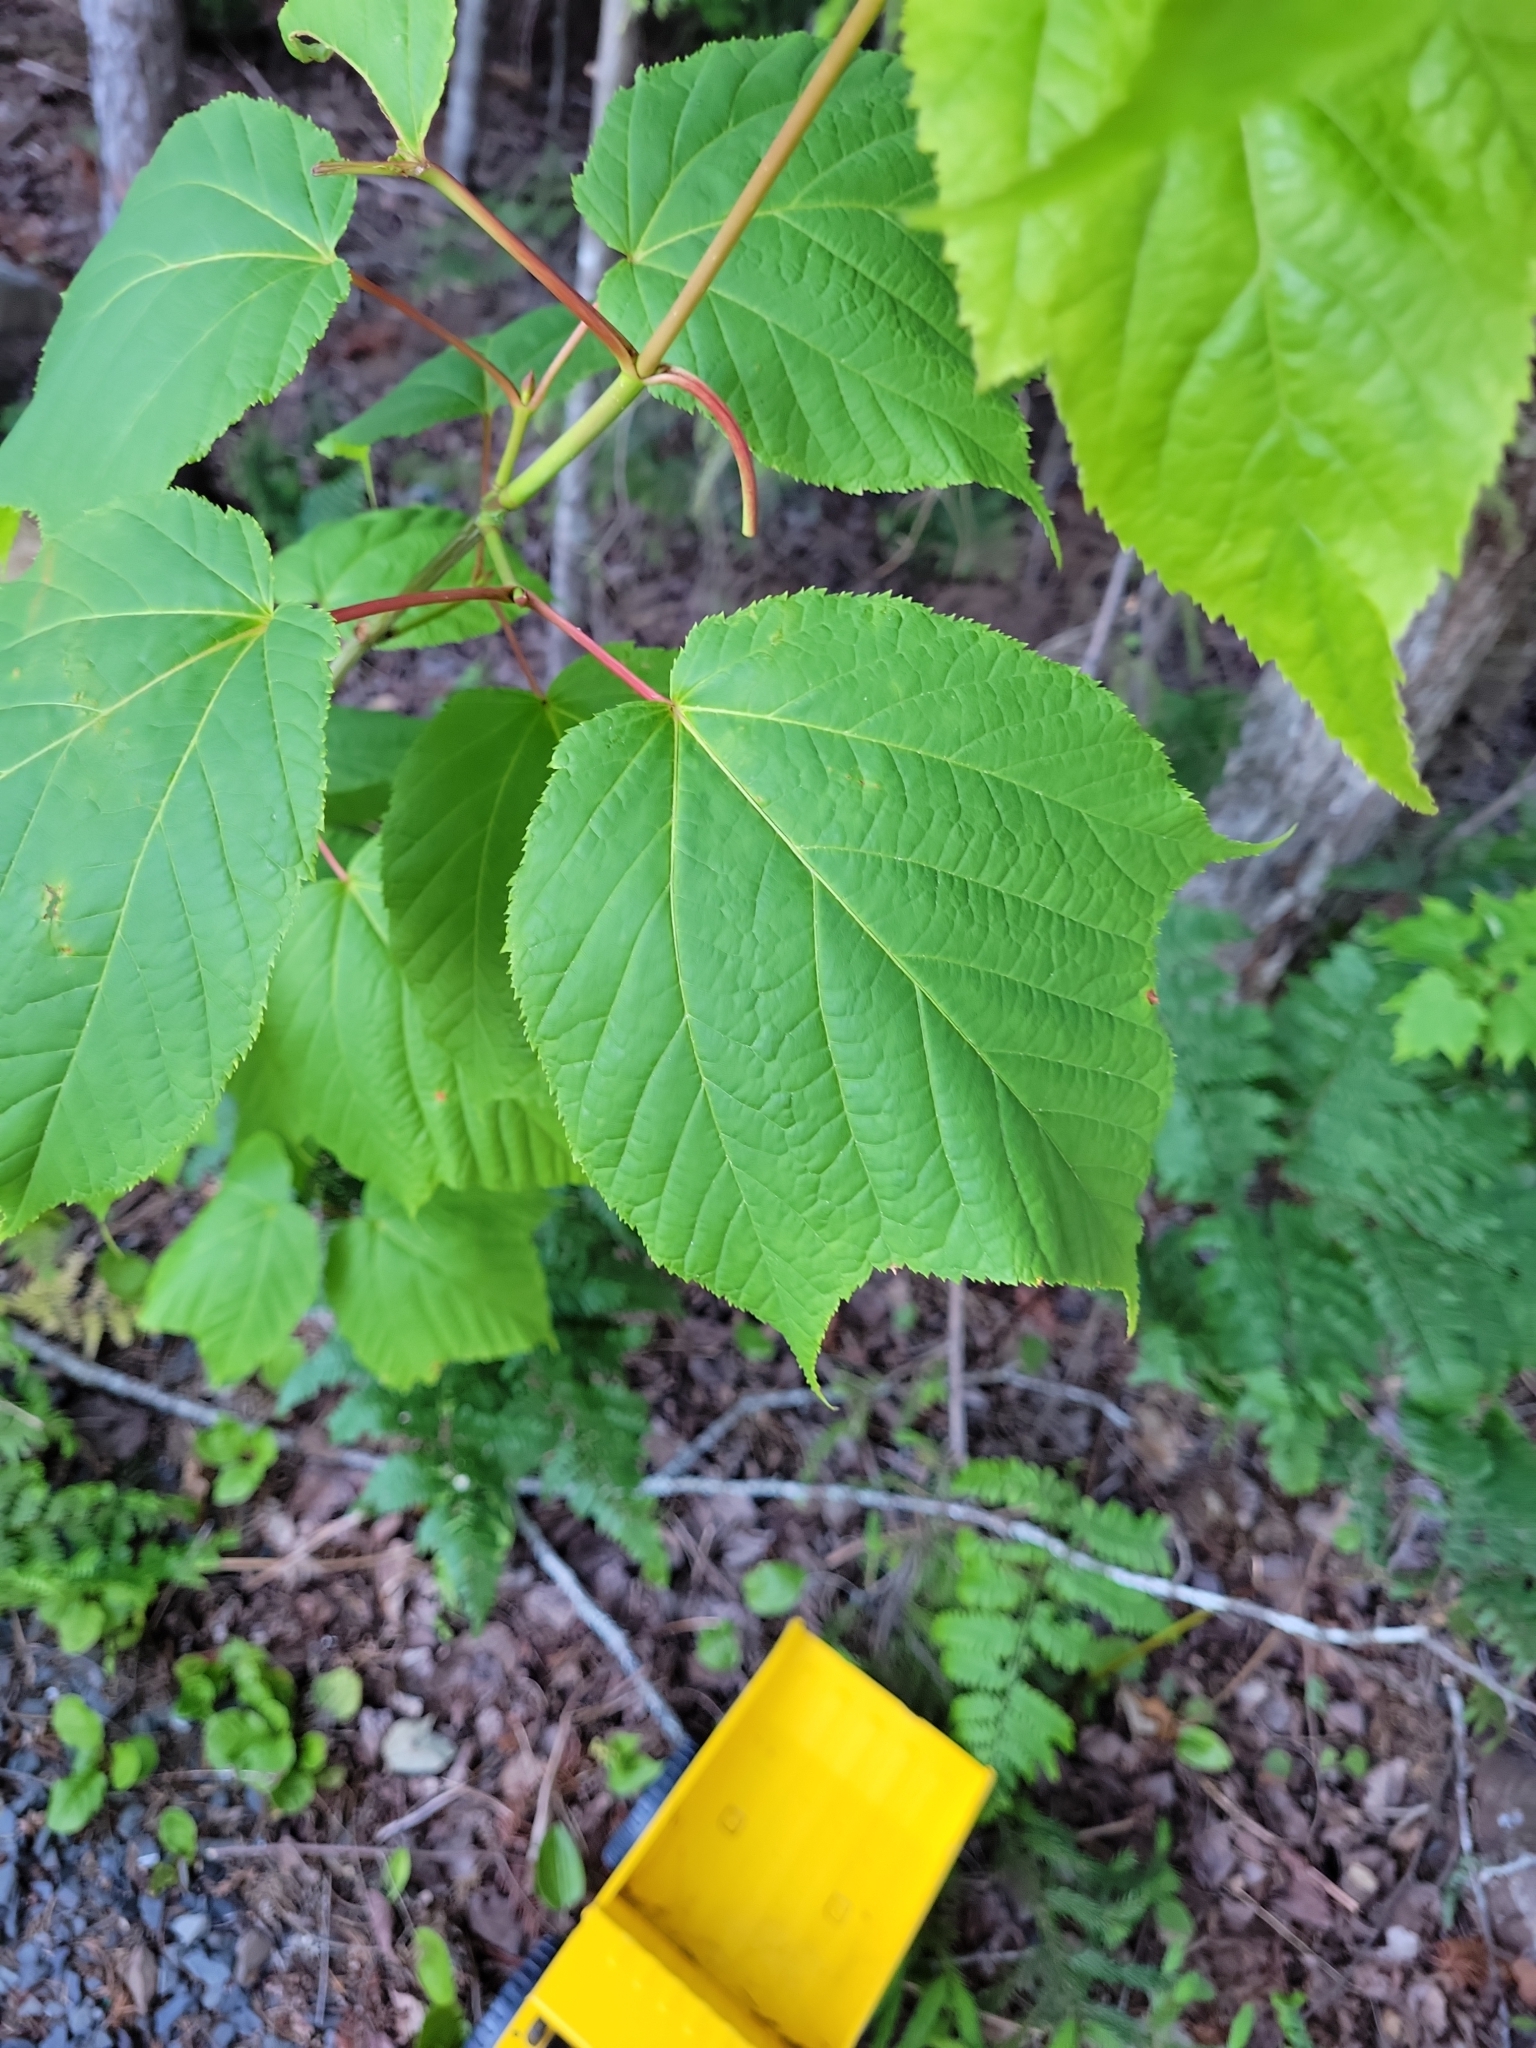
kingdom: Plantae
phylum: Tracheophyta
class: Magnoliopsida
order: Sapindales
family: Sapindaceae
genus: Acer
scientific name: Acer pensylvanicum
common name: Moosewood
